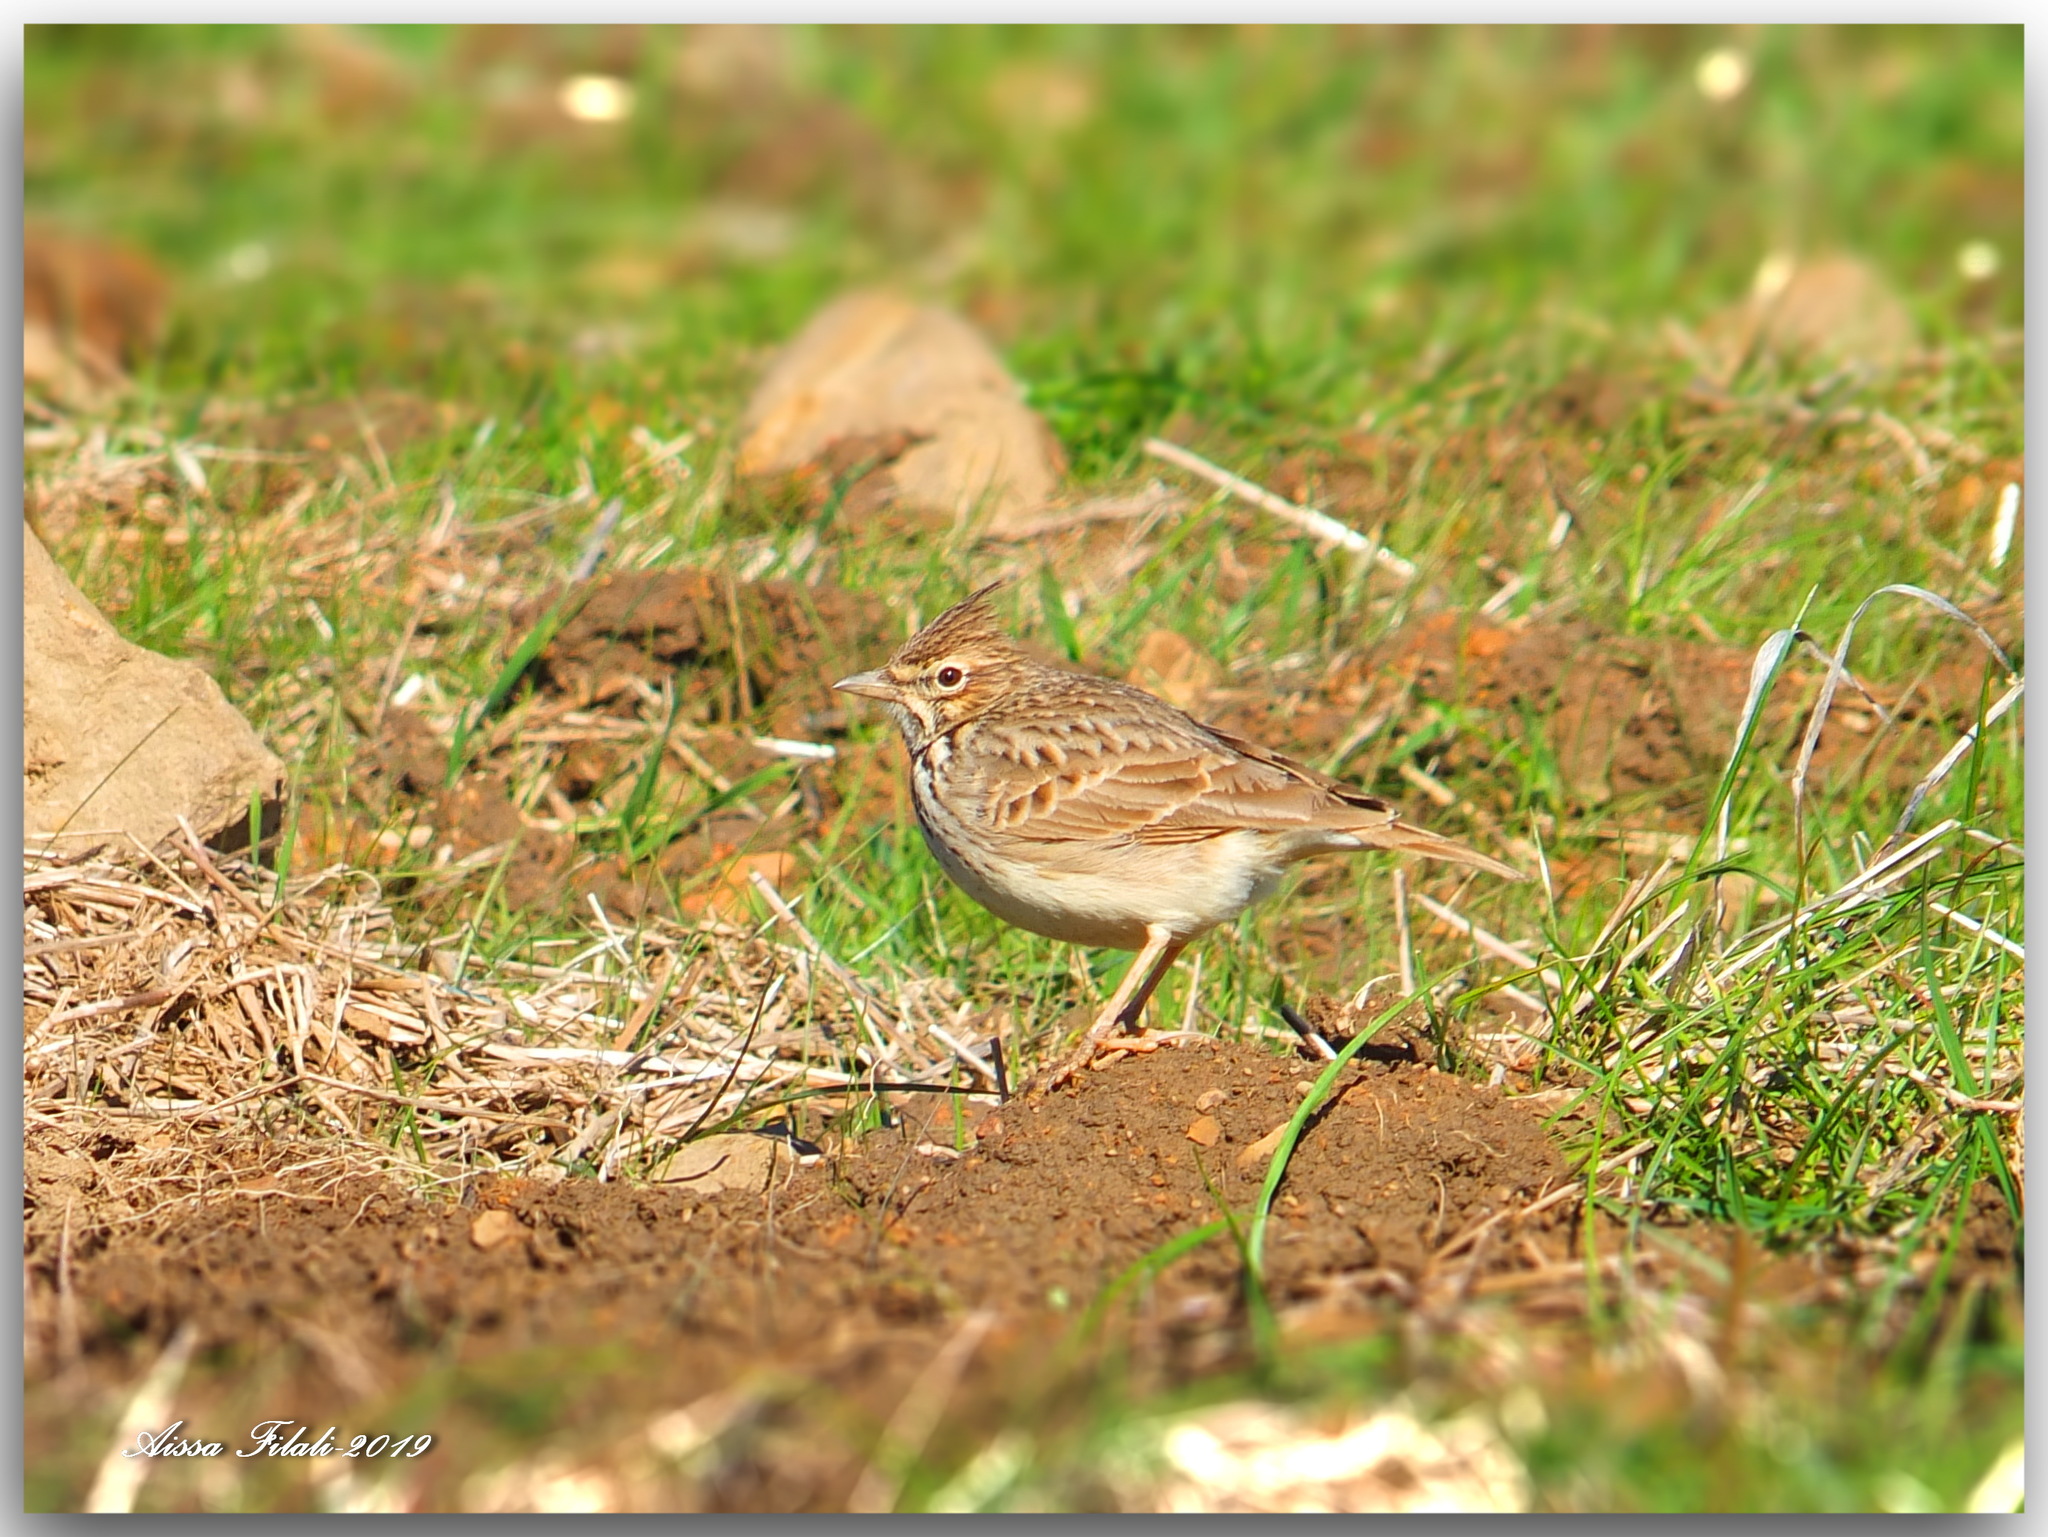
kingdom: Animalia
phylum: Chordata
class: Aves
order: Passeriformes
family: Alaudidae
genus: Galerida
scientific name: Galerida cristata
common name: Crested lark
